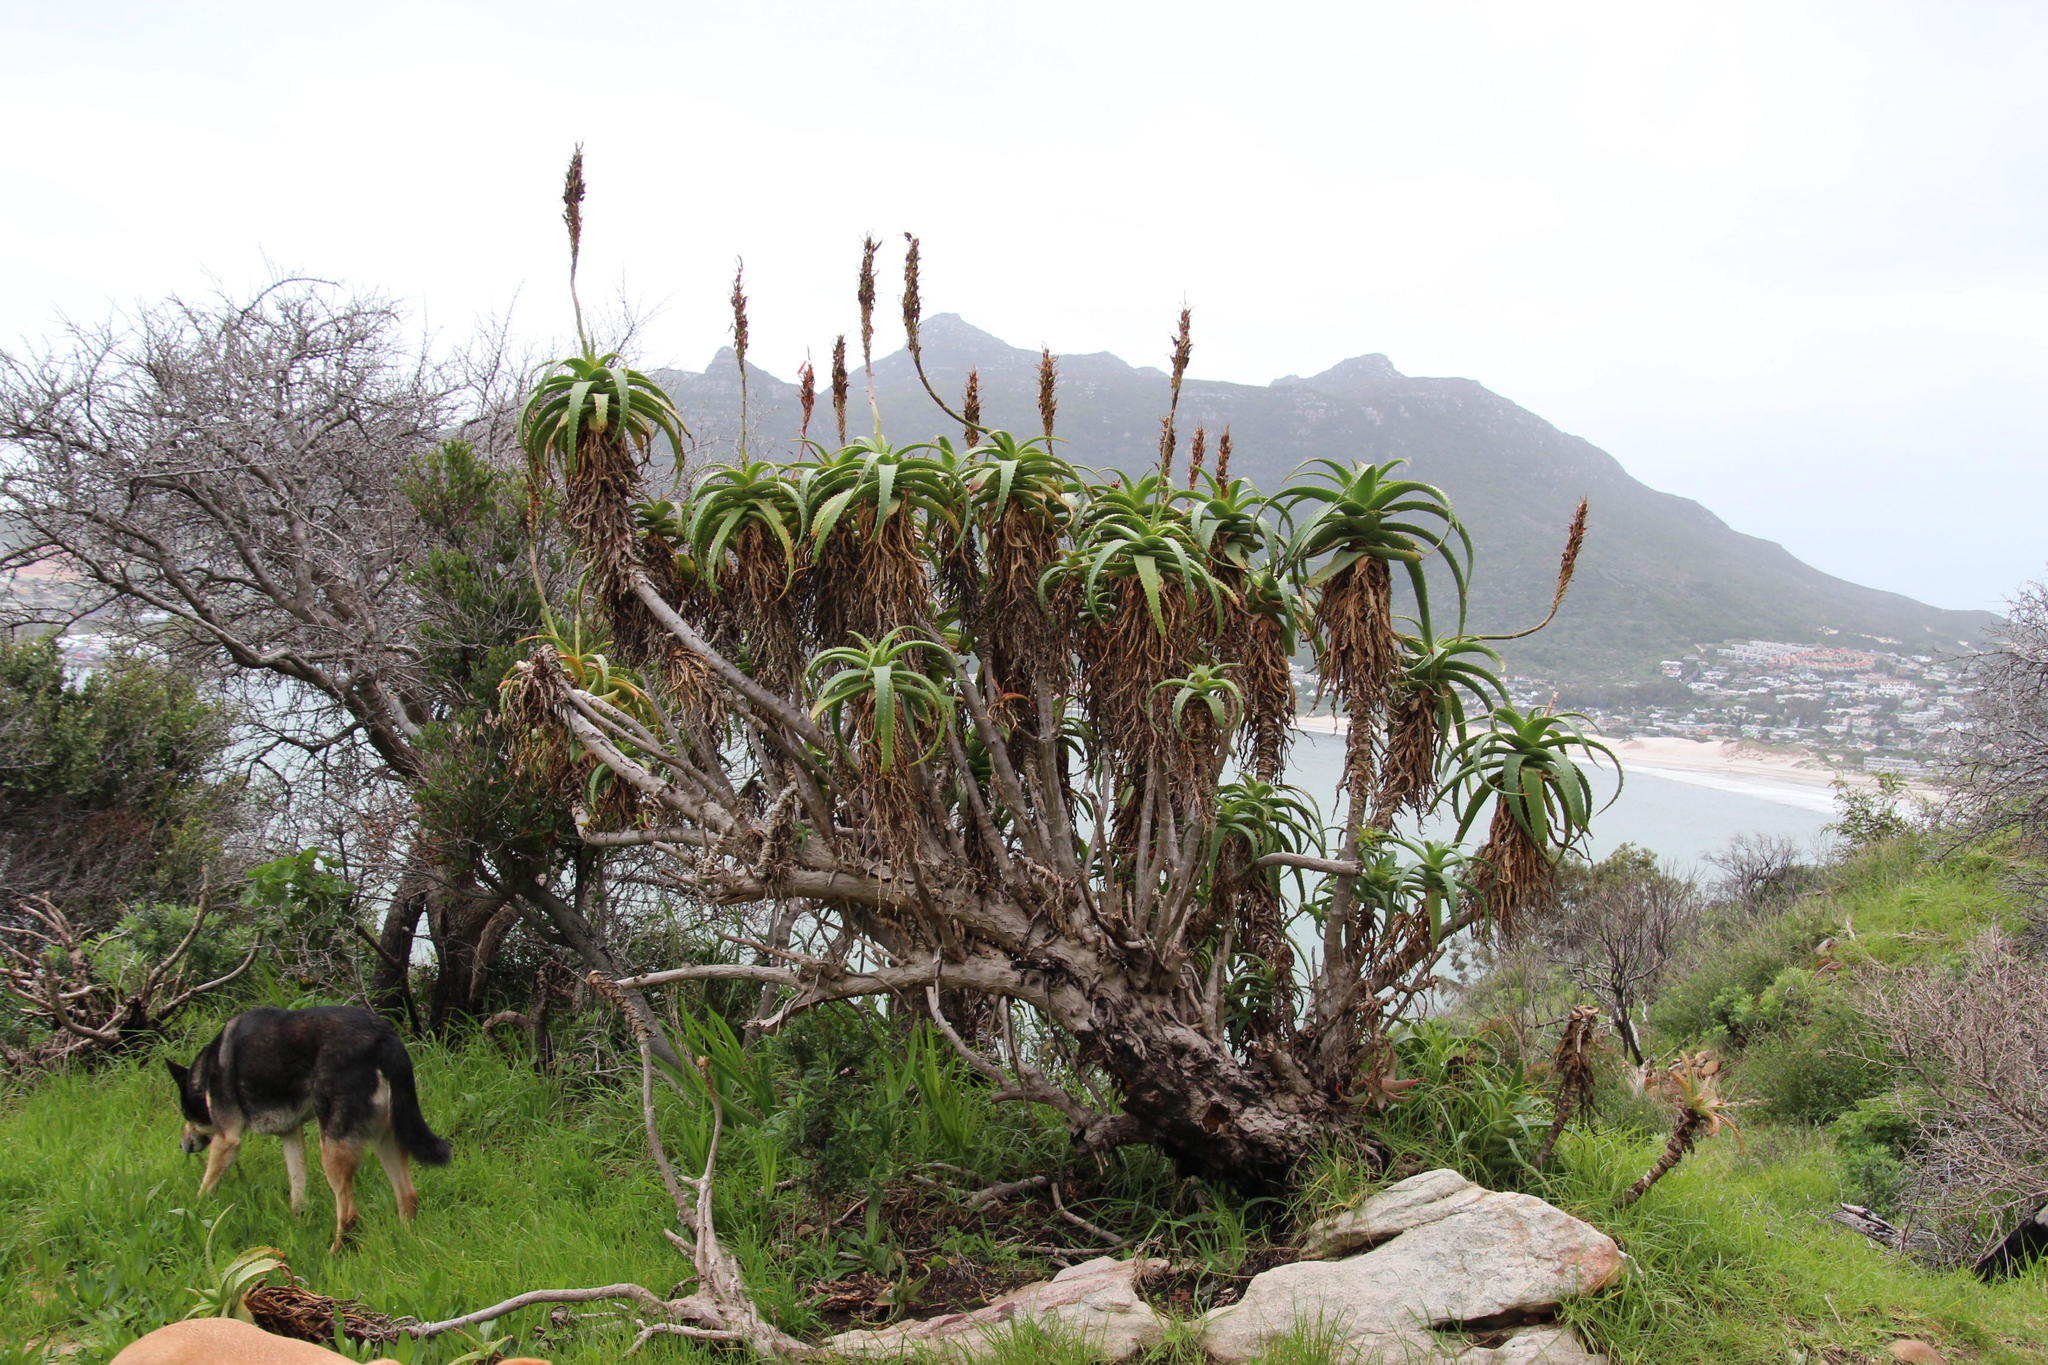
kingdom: Plantae
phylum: Tracheophyta
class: Liliopsida
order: Asparagales
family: Asphodelaceae
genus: Aloe
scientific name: Aloe arborescens
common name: Candelabra aloe
